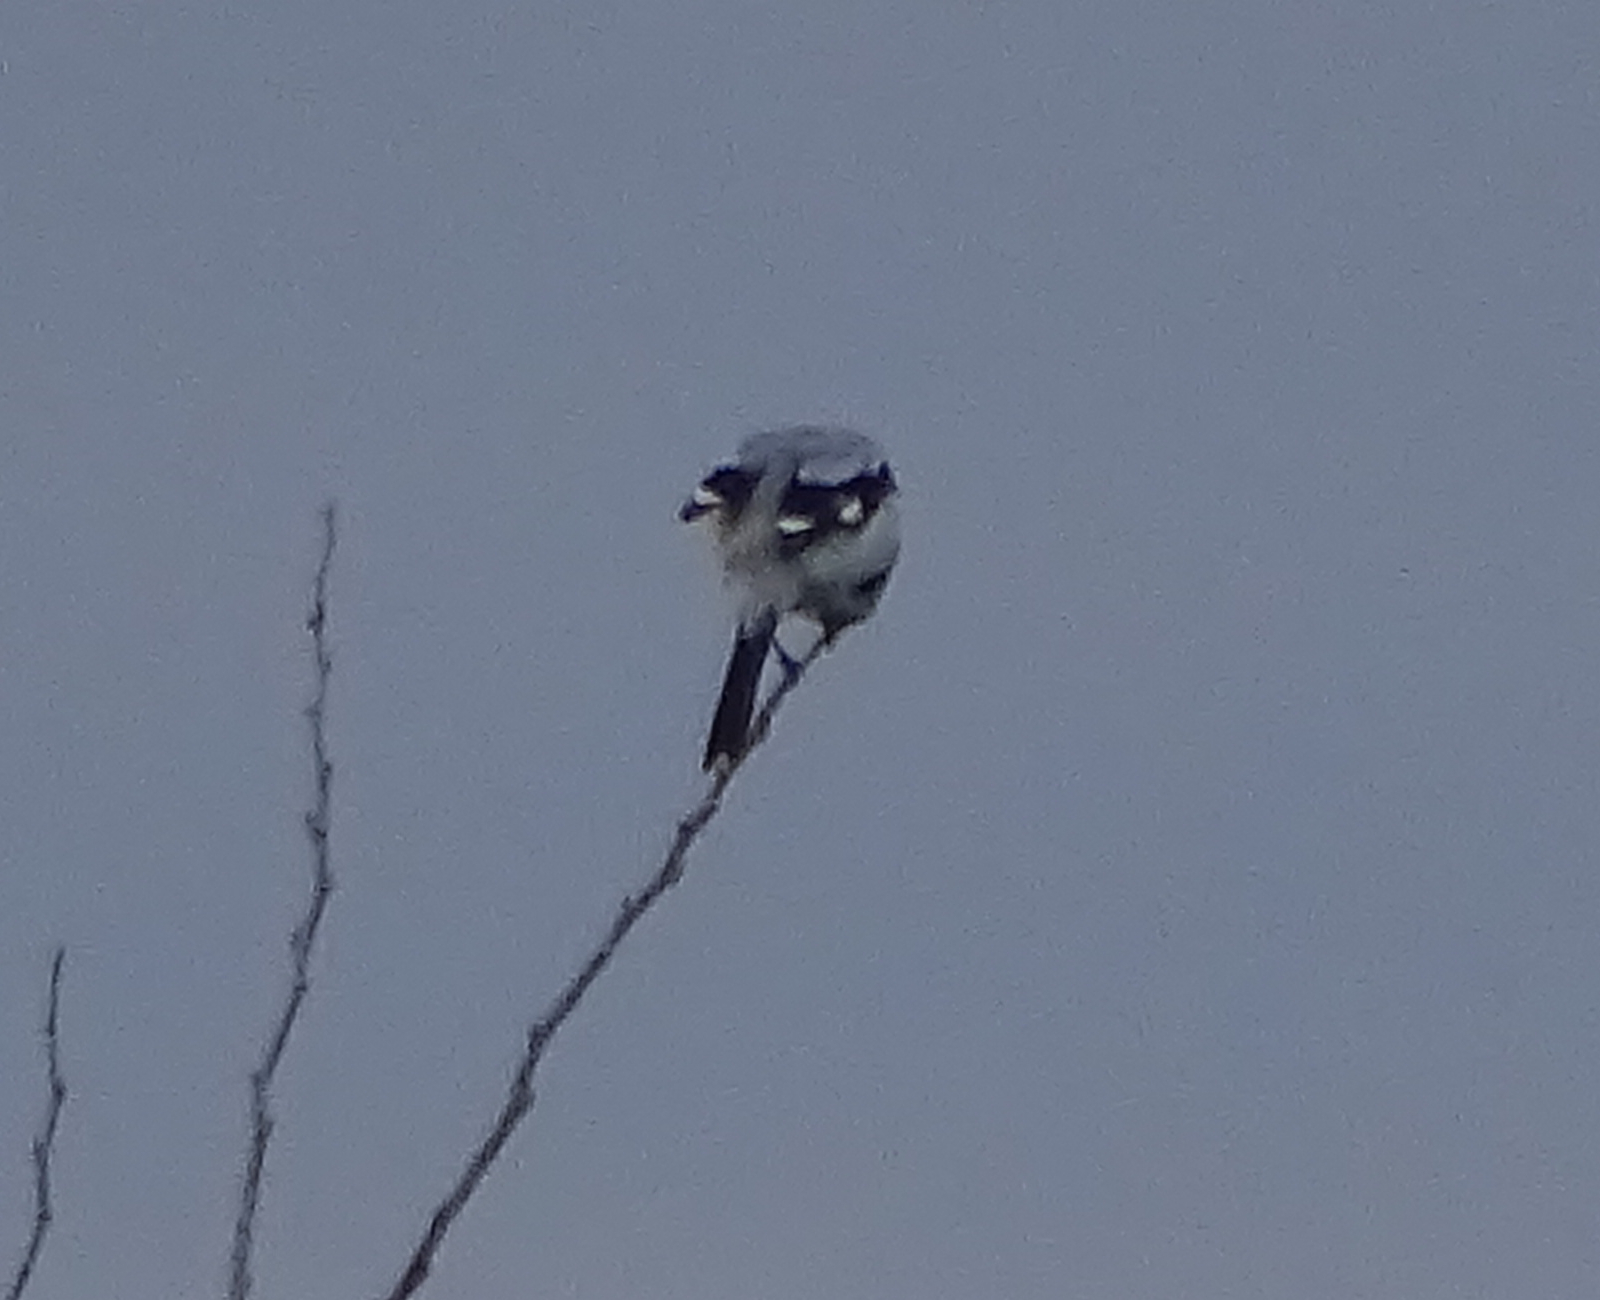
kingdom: Animalia
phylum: Chordata
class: Aves
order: Passeriformes
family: Laniidae
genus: Lanius
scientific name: Lanius excubitor
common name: Great grey shrike
